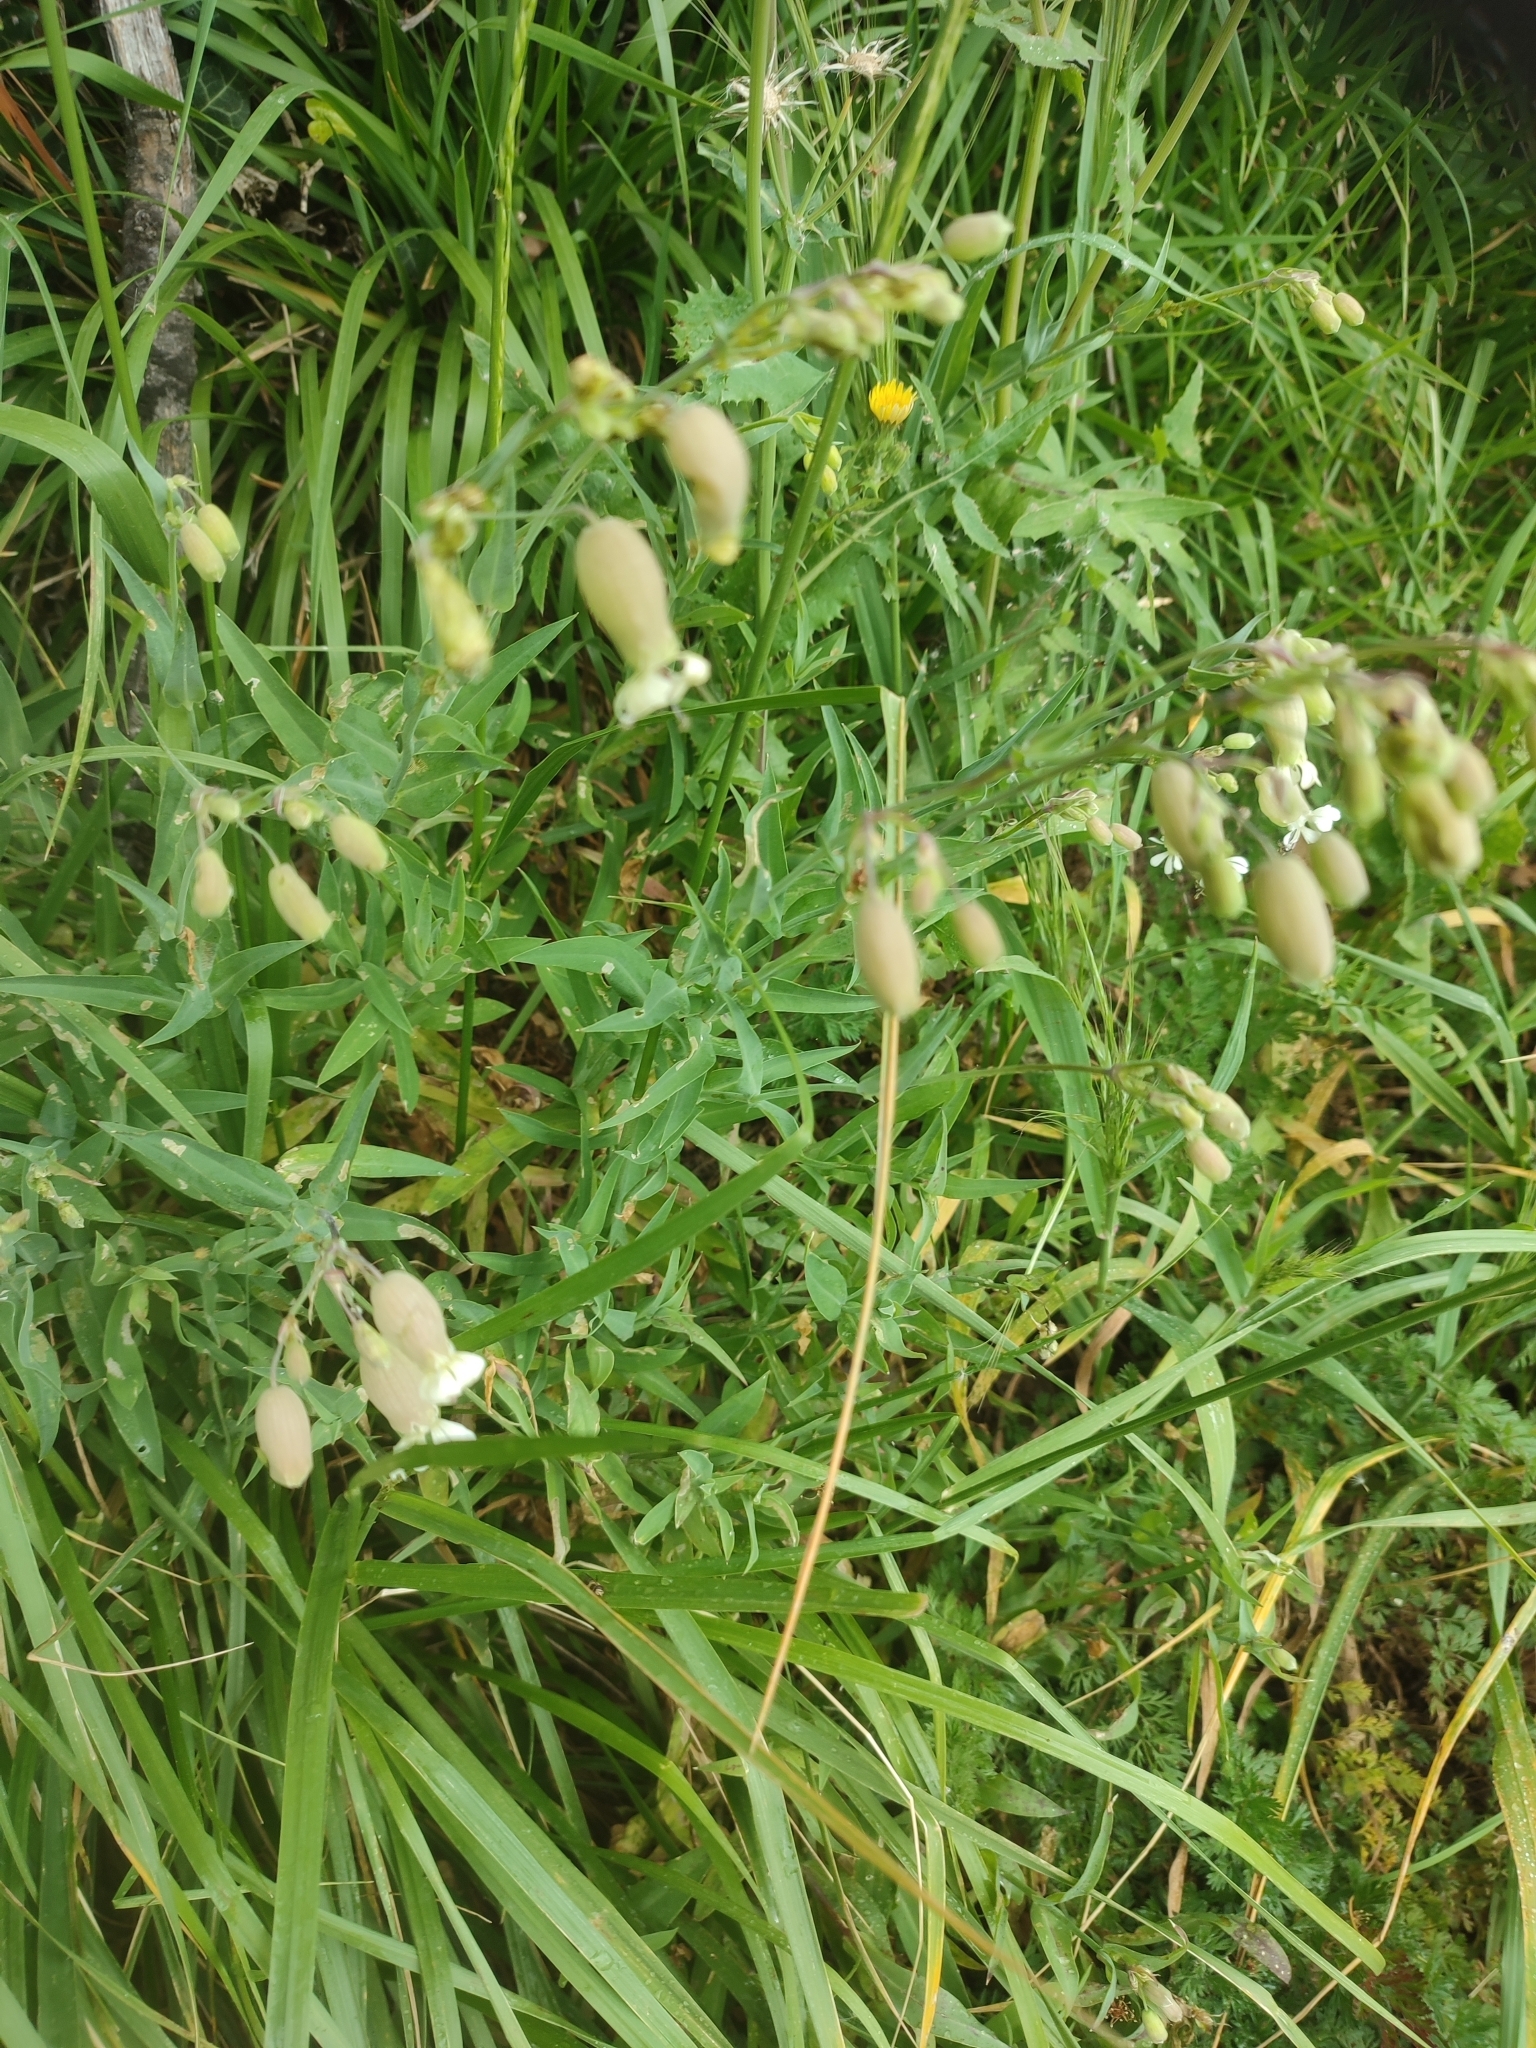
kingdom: Plantae
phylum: Tracheophyta
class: Magnoliopsida
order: Caryophyllales
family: Caryophyllaceae
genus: Silene
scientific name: Silene vulgaris
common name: Bladder campion
